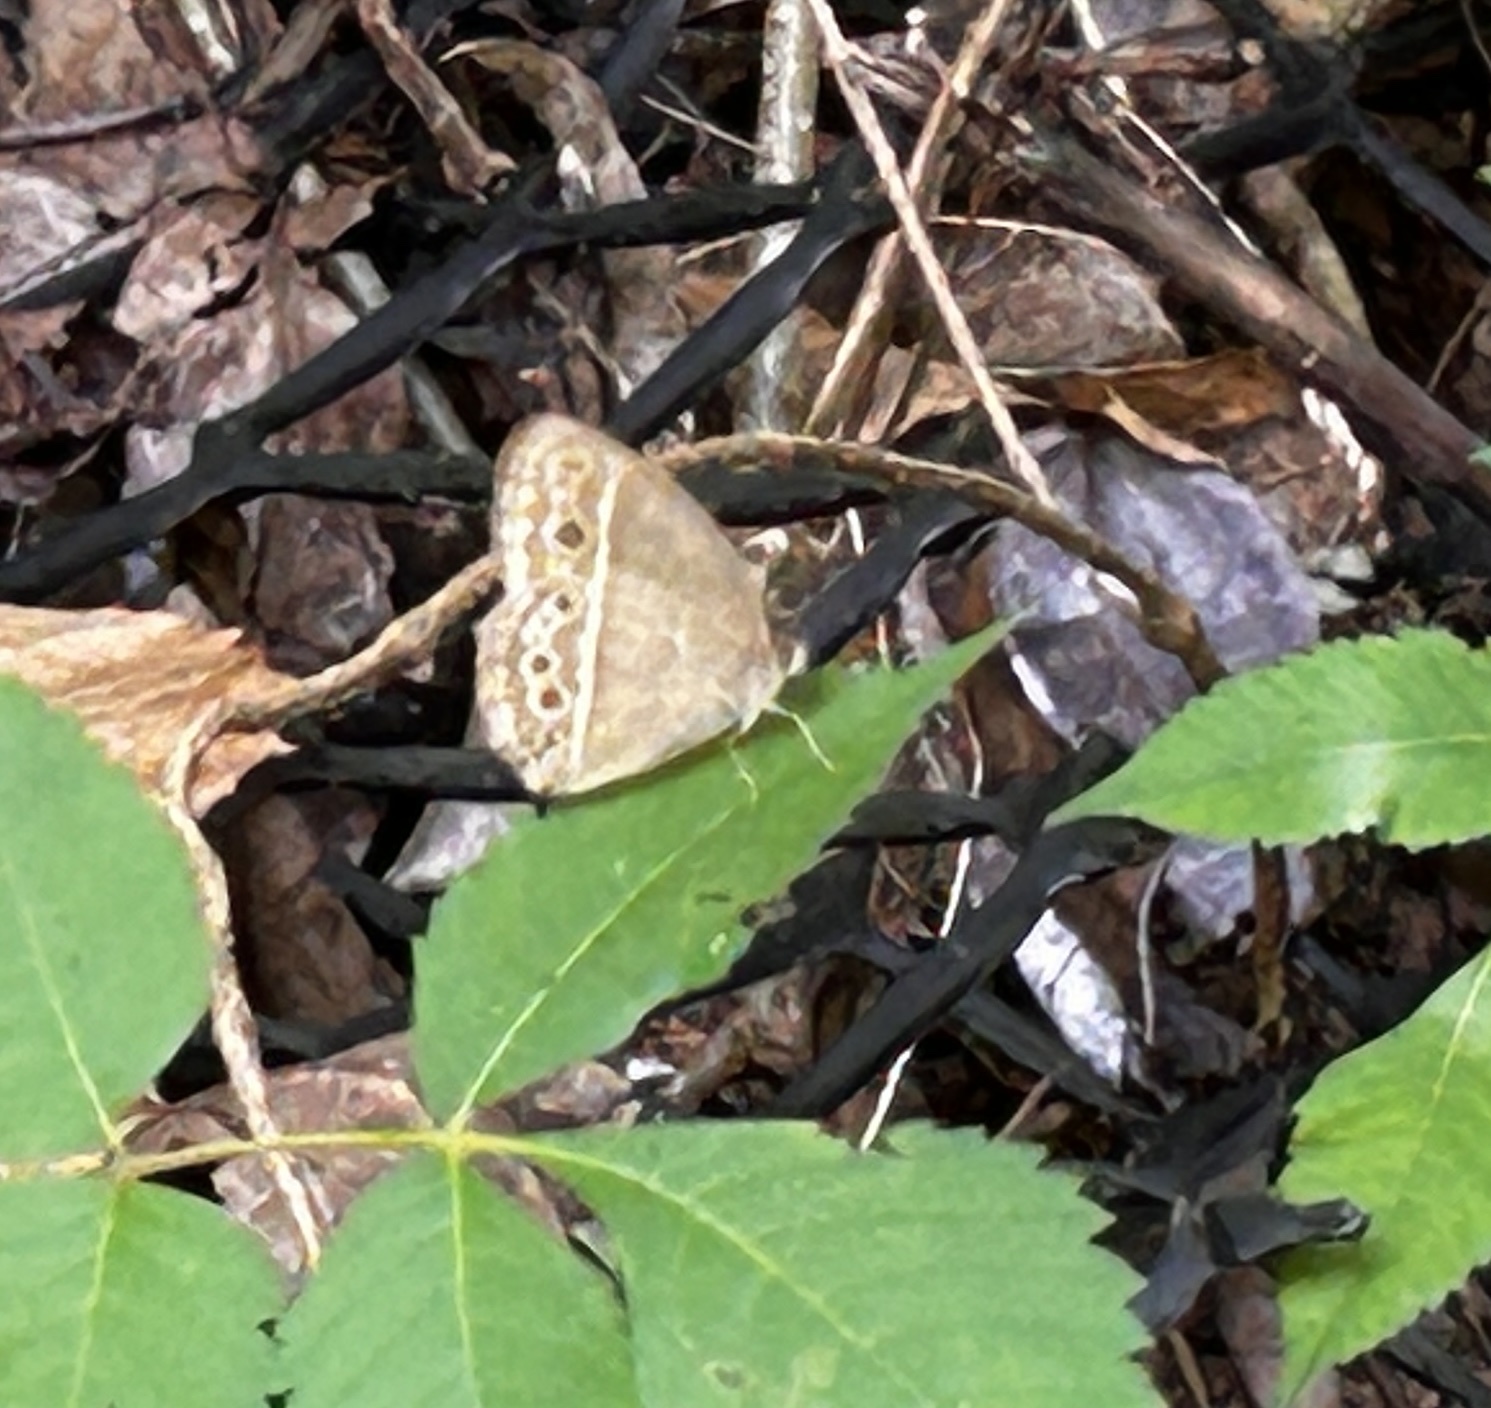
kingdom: Animalia
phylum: Arthropoda
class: Insecta
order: Lepidoptera
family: Nymphalidae
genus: Mycalesis
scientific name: Mycalesis mineus
